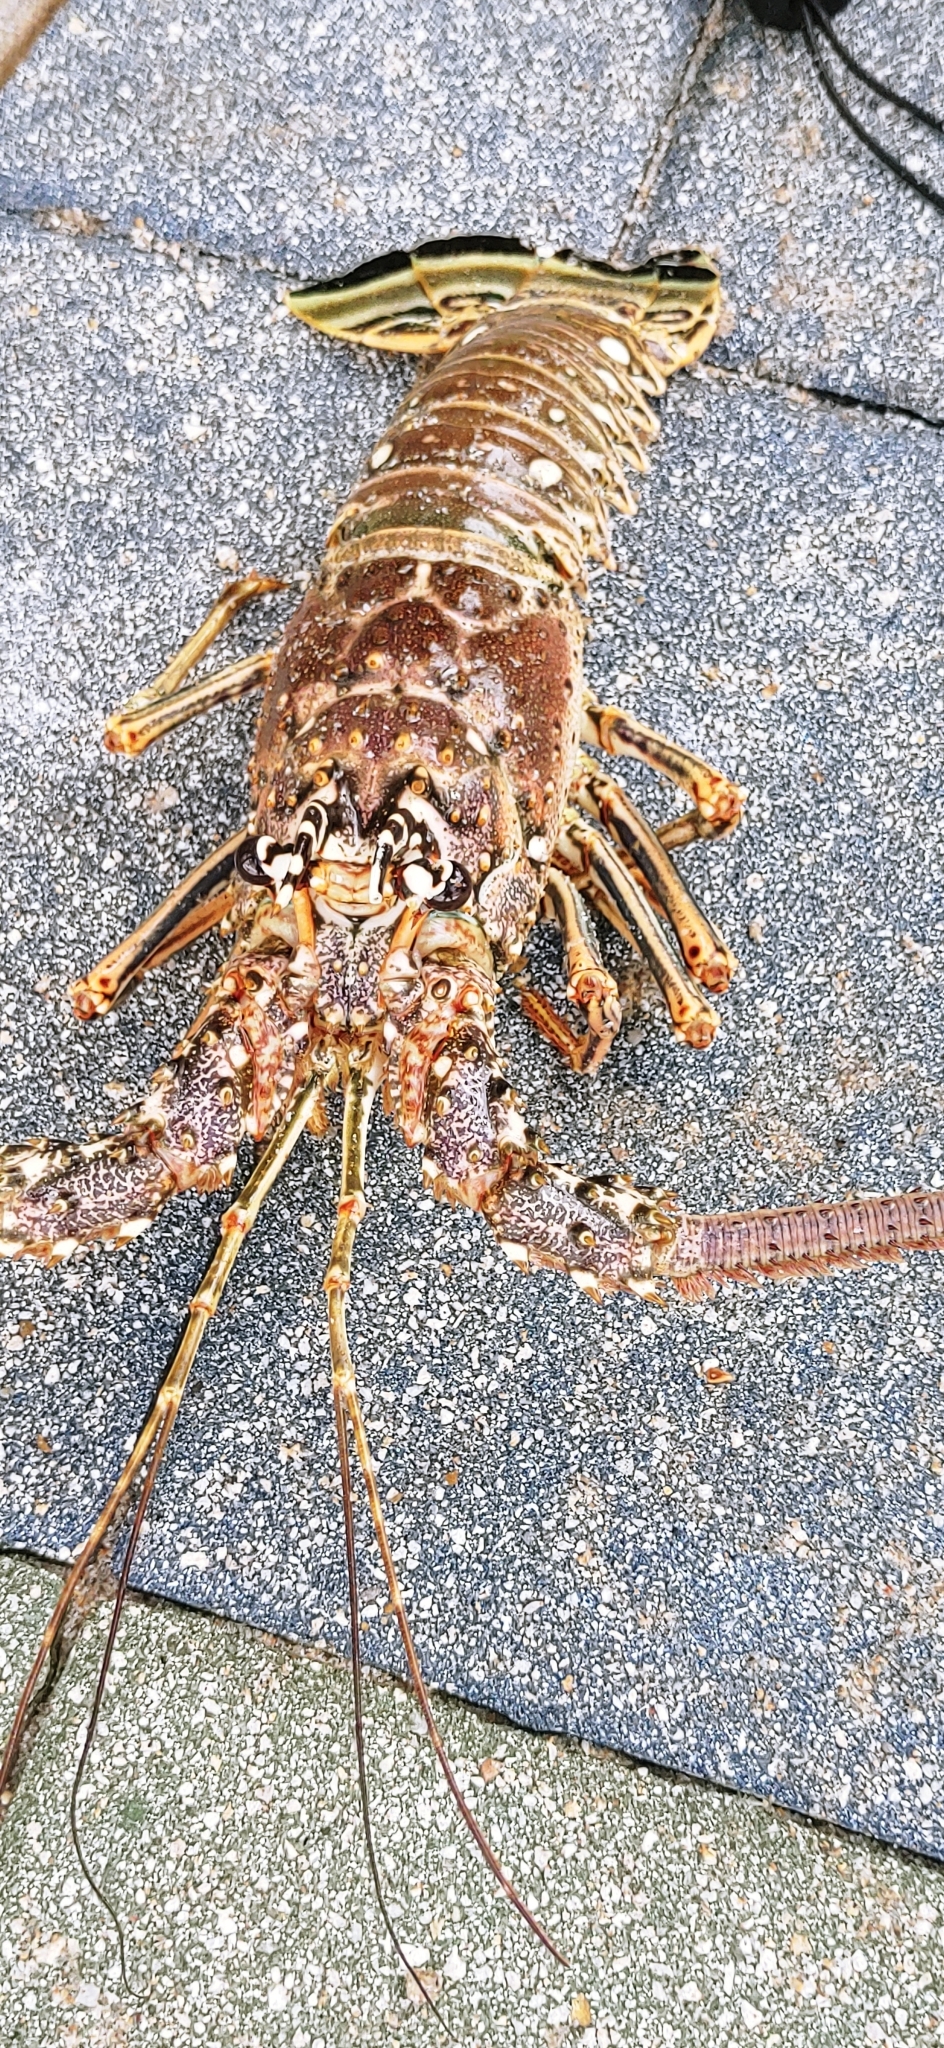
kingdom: Animalia
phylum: Arthropoda
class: Malacostraca
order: Decapoda
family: Palinuridae
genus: Panulirus
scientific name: Panulirus argus
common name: Caribbean spiny lobster
